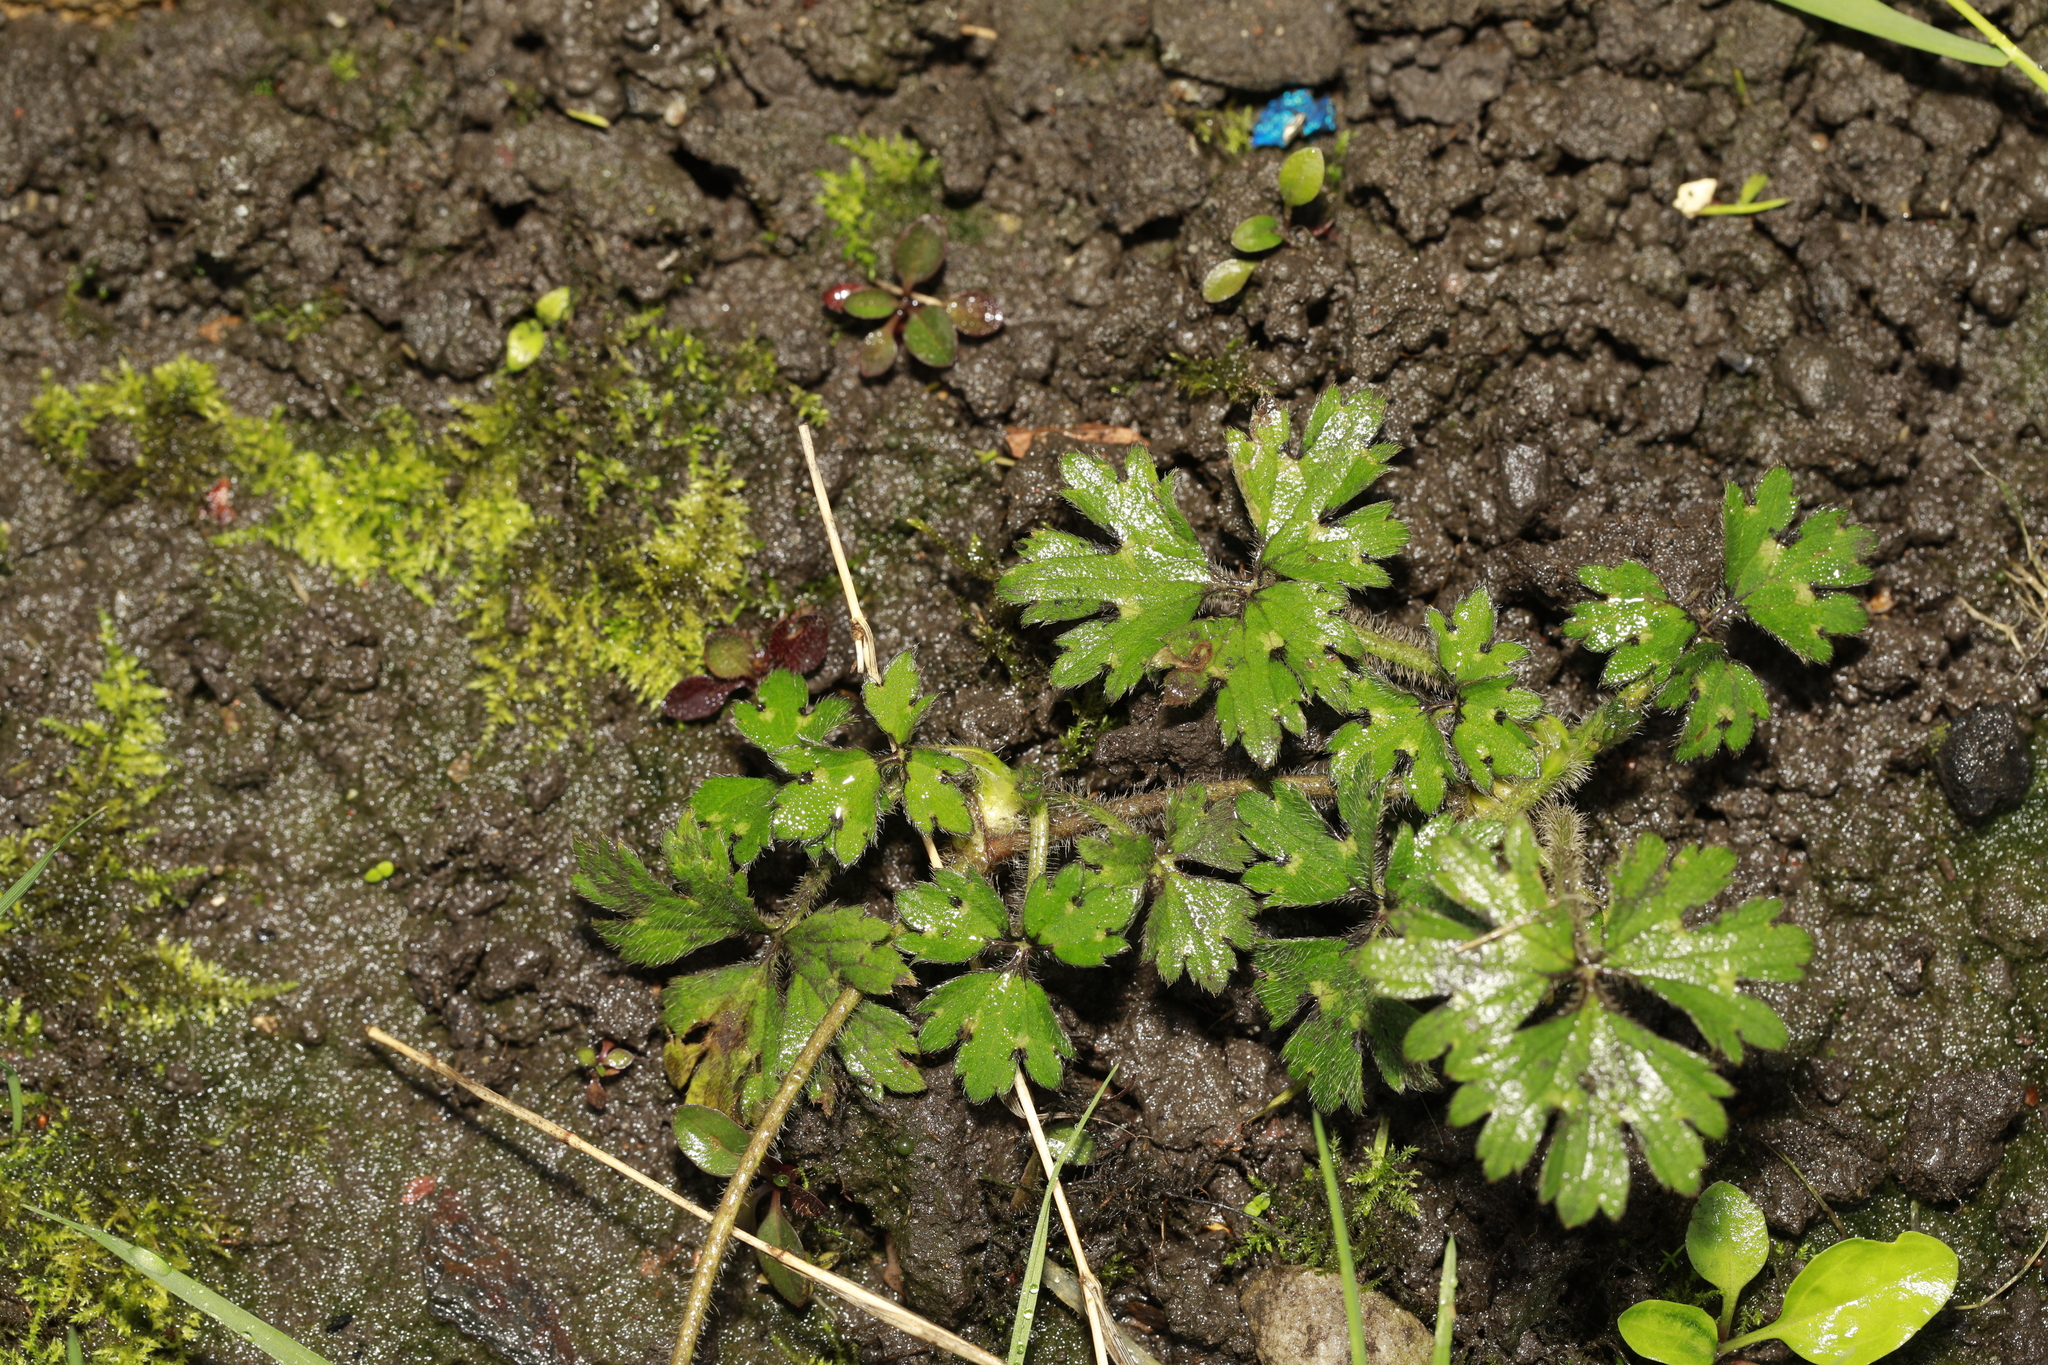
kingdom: Plantae
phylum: Tracheophyta
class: Magnoliopsida
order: Ranunculales
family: Ranunculaceae
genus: Ranunculus
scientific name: Ranunculus repens
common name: Creeping buttercup
